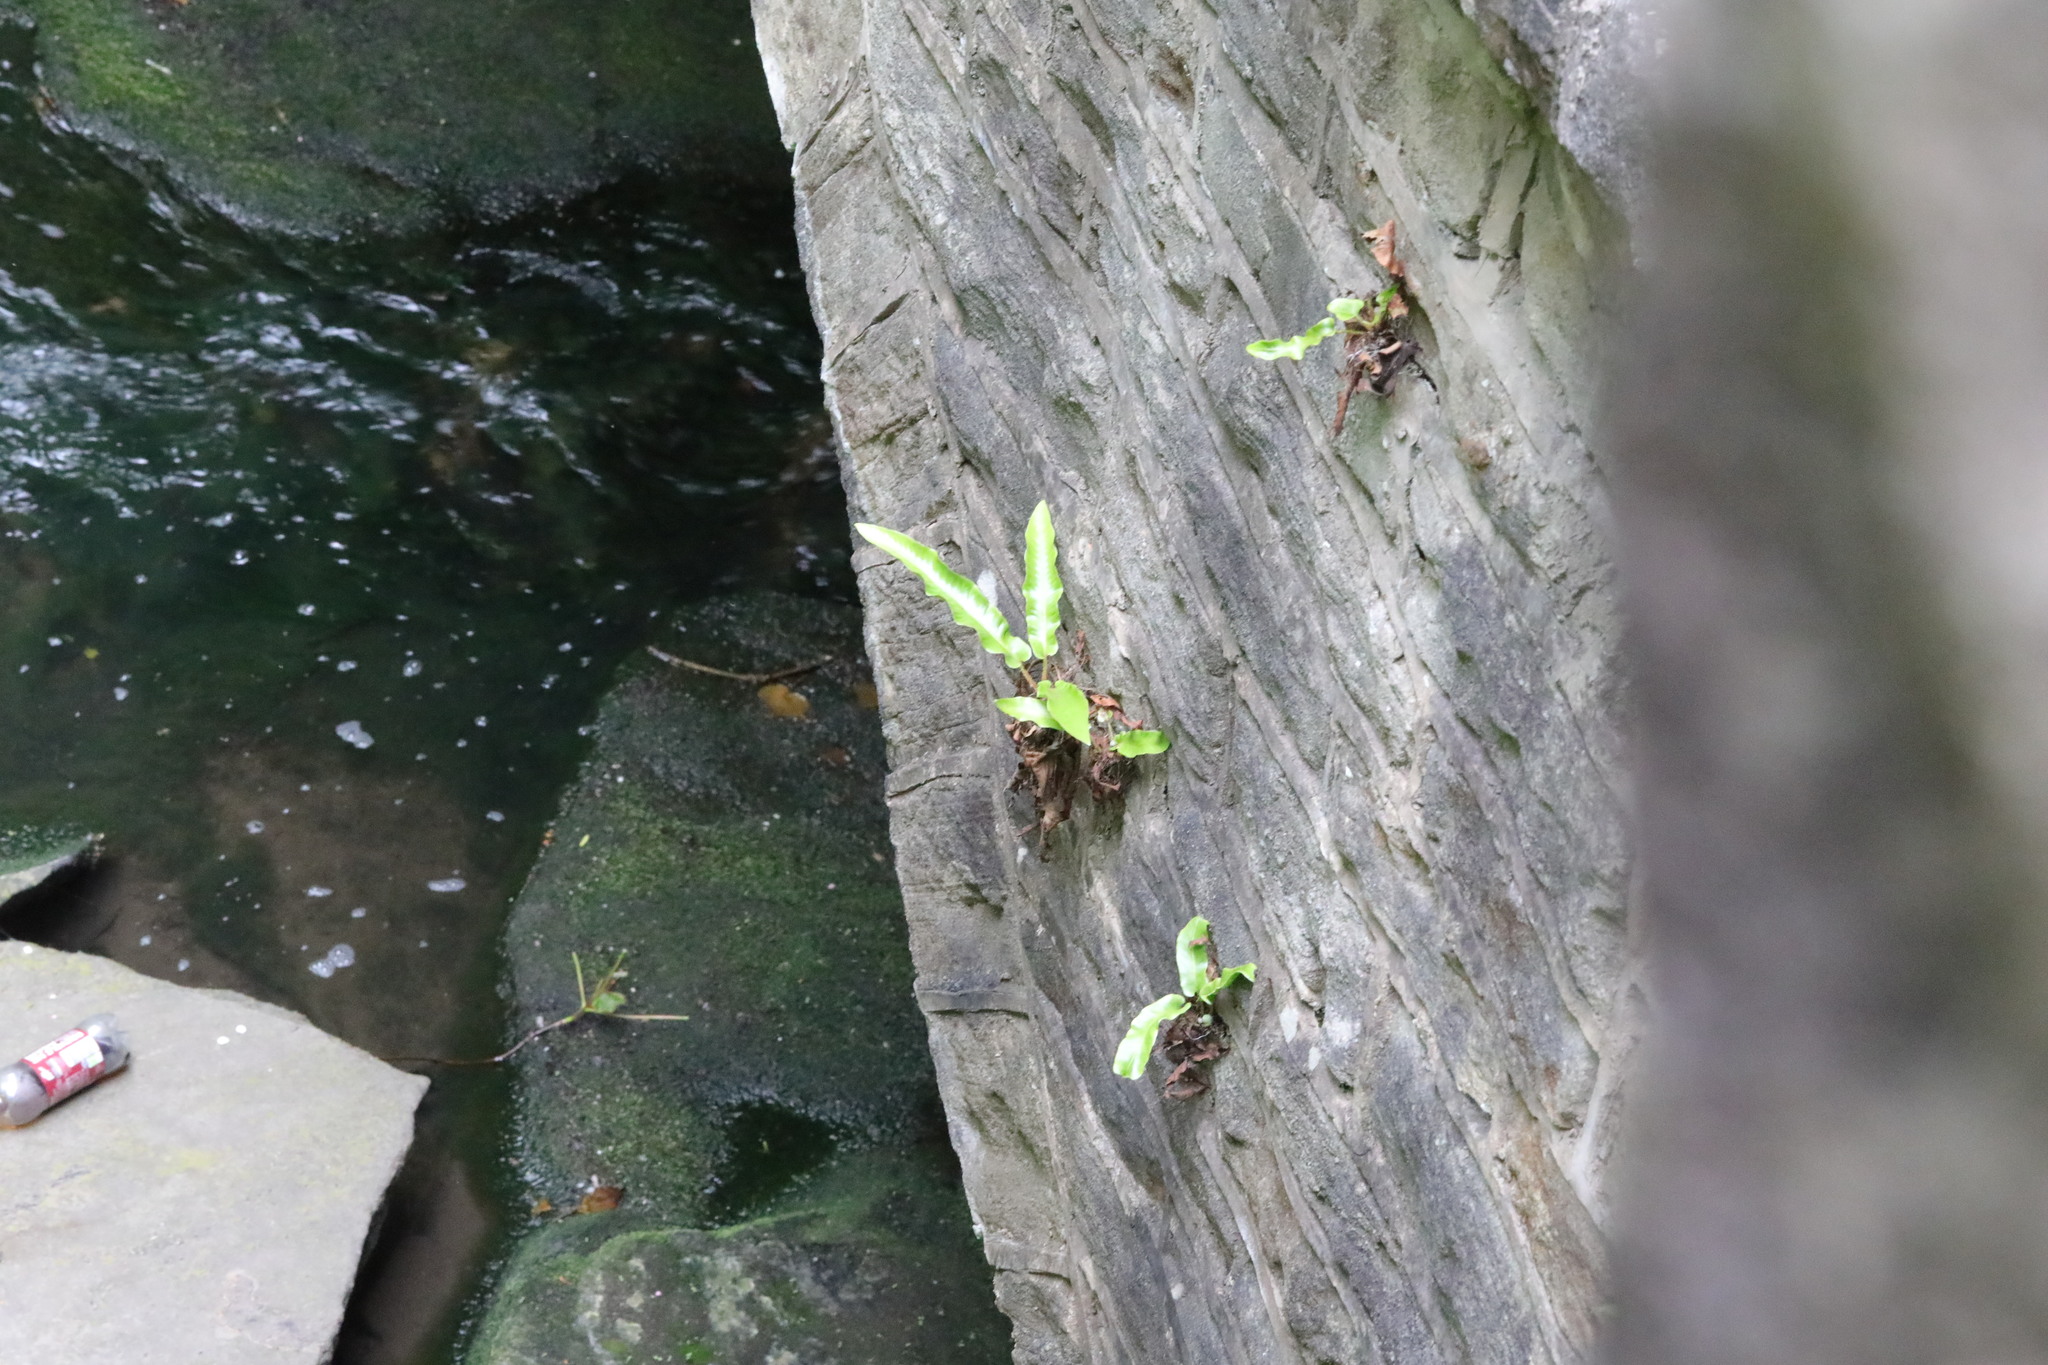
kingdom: Plantae
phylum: Tracheophyta
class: Polypodiopsida
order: Polypodiales
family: Aspleniaceae
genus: Asplenium
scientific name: Asplenium scolopendrium
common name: Hart's-tongue fern
